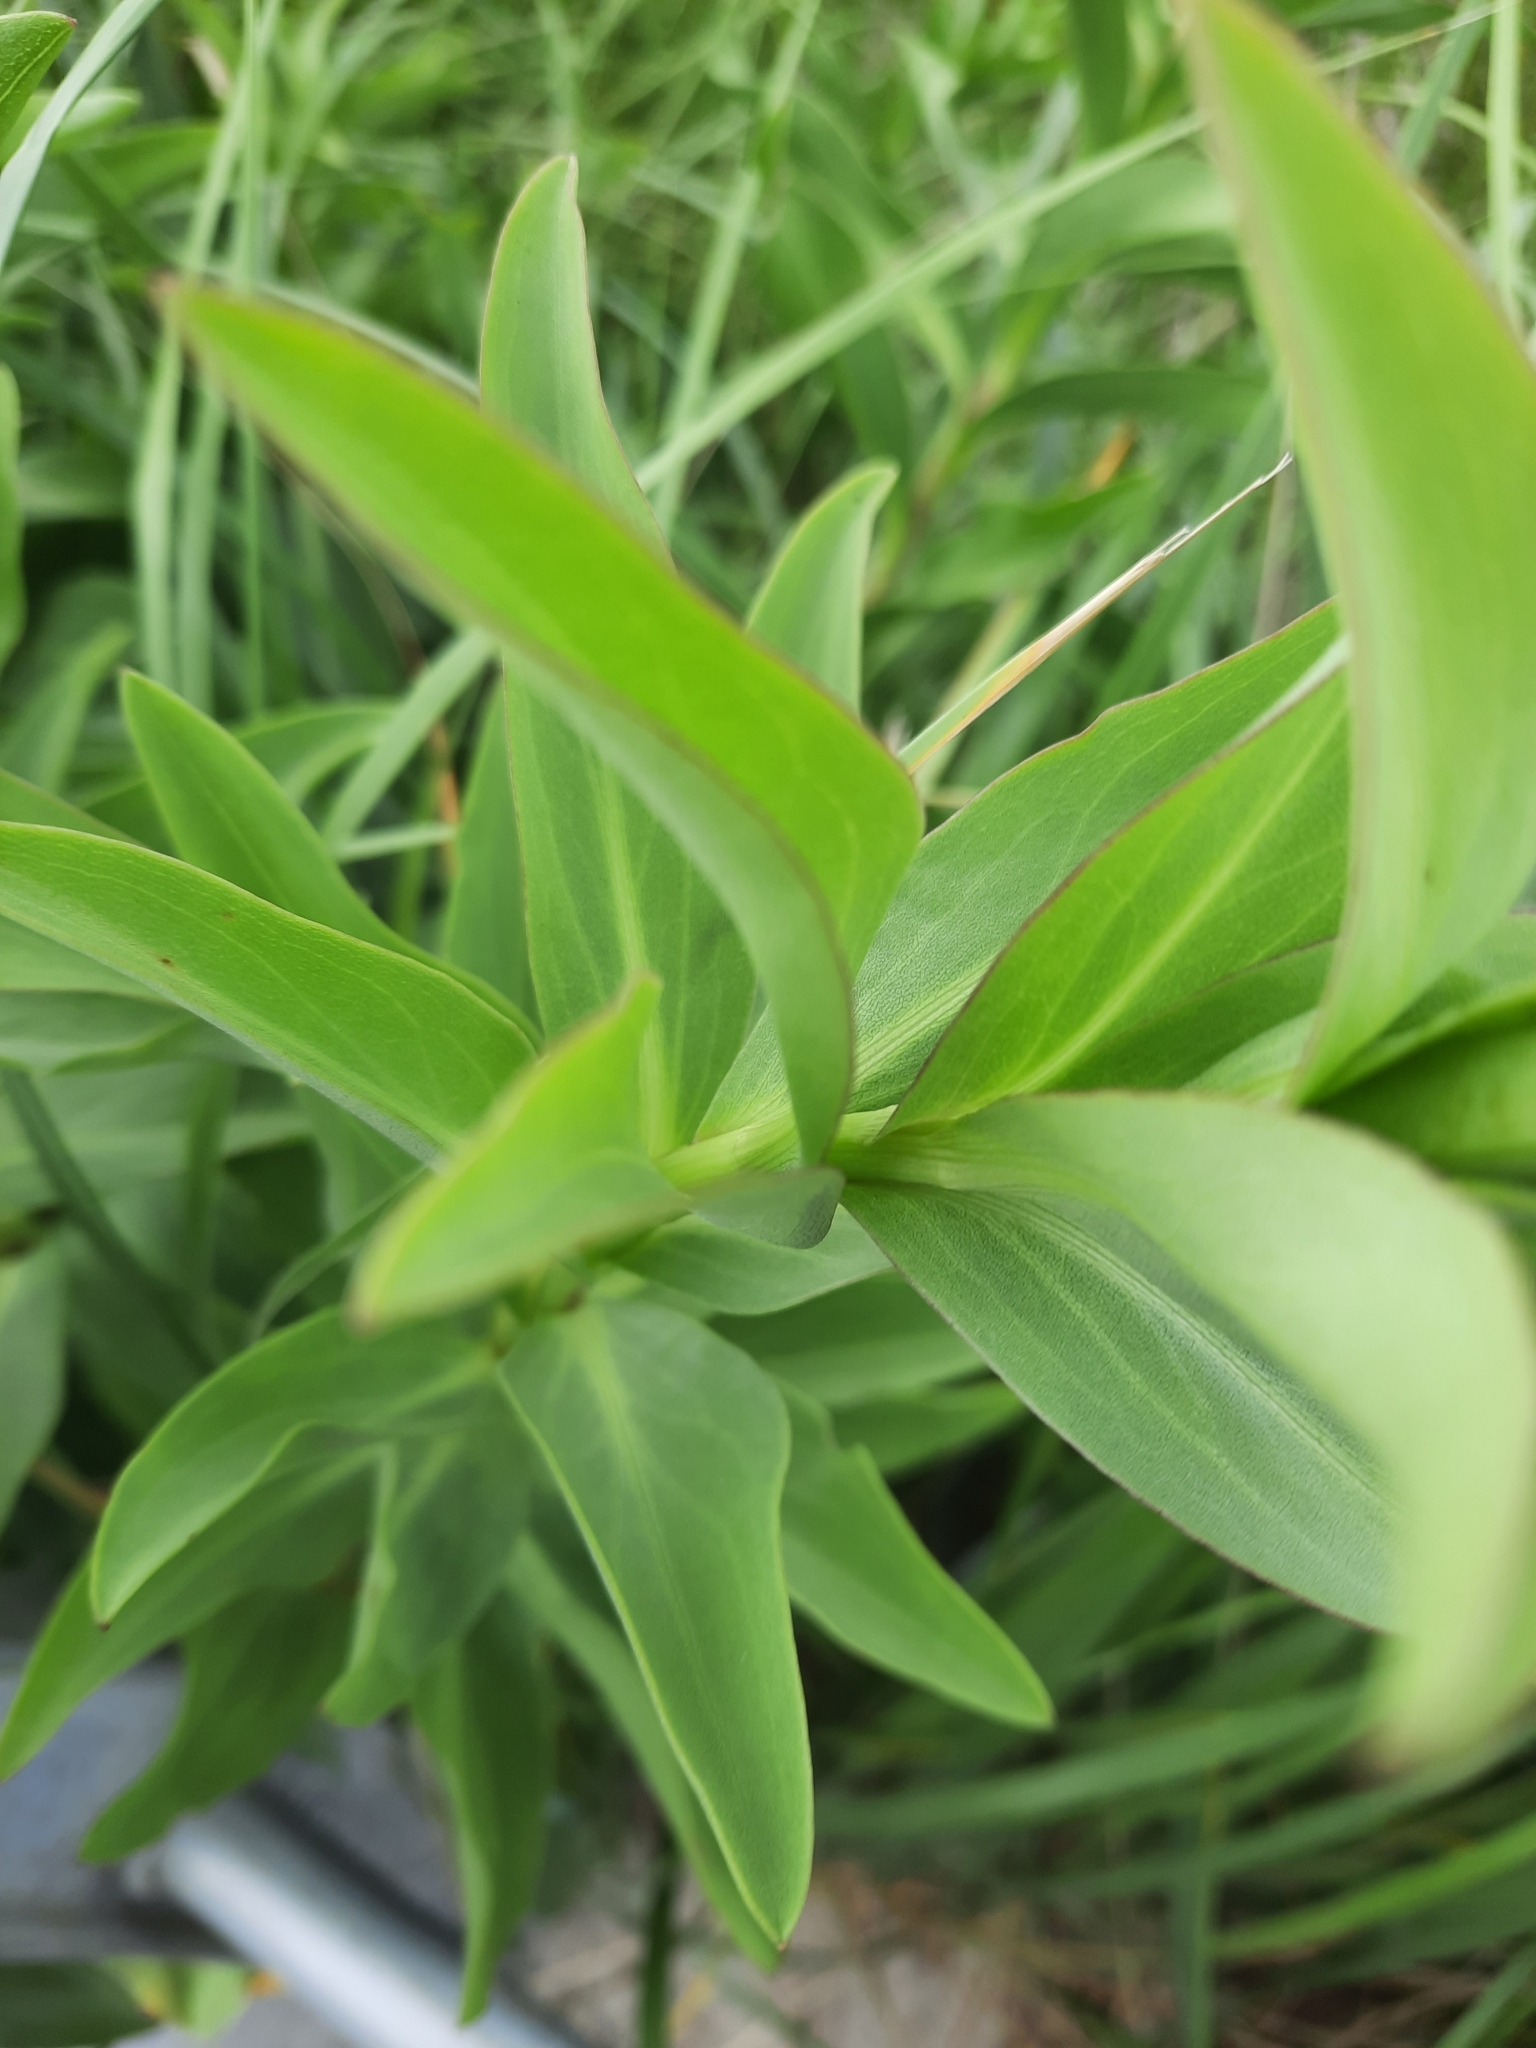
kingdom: Plantae
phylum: Tracheophyta
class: Magnoliopsida
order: Asterales
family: Asteraceae
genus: Solidago
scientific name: Solidago sempervirens
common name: Salt-marsh goldenrod
